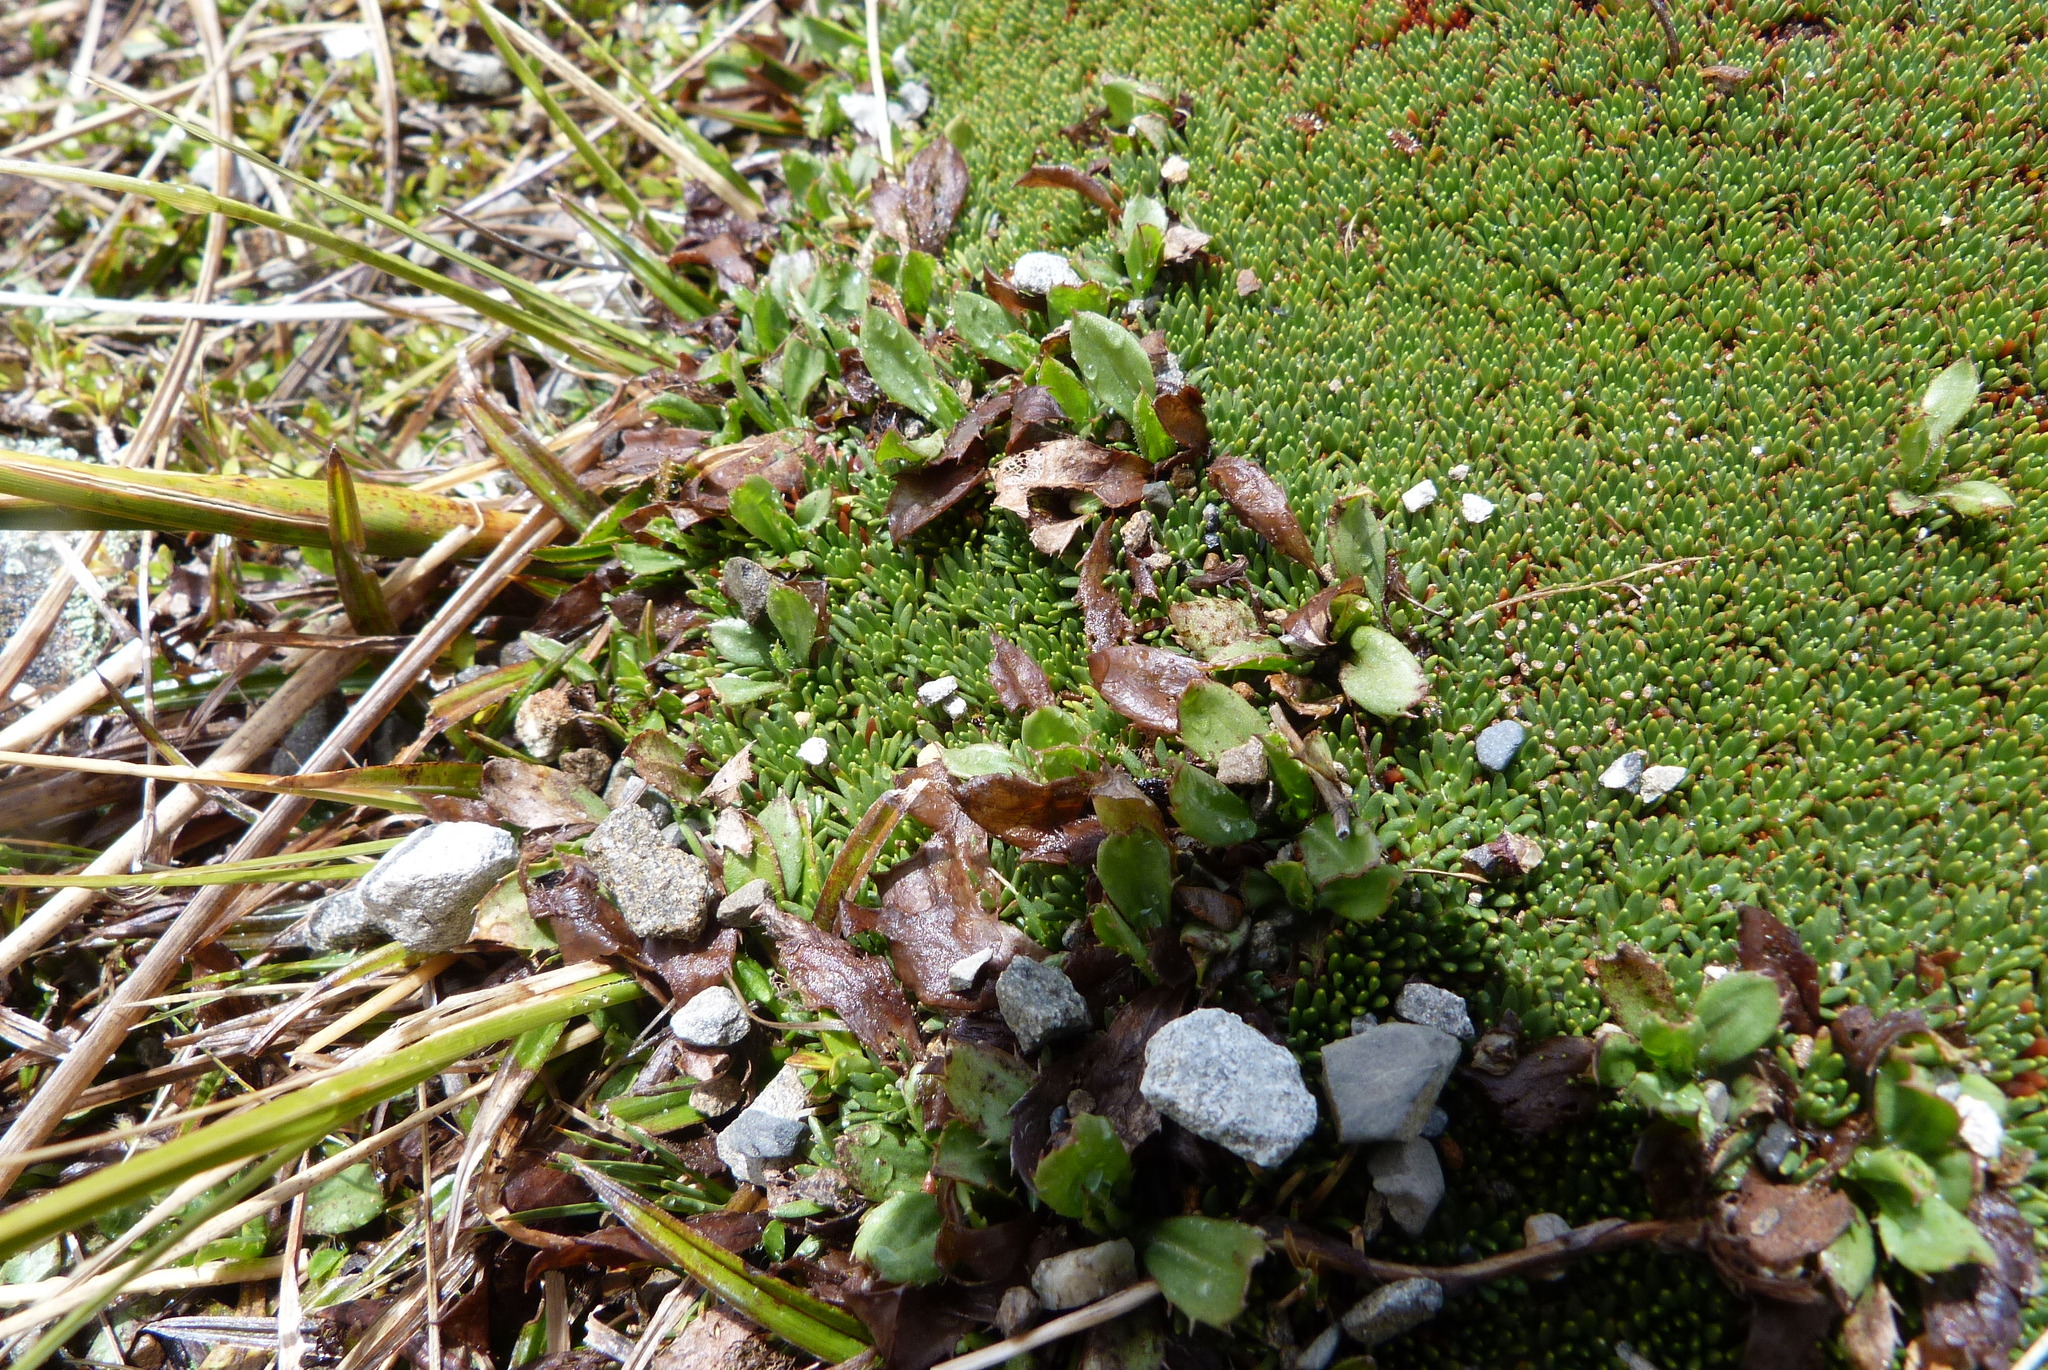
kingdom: Plantae
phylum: Tracheophyta
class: Magnoliopsida
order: Asterales
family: Asteraceae
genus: Celmisia
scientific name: Celmisia glandulosa
